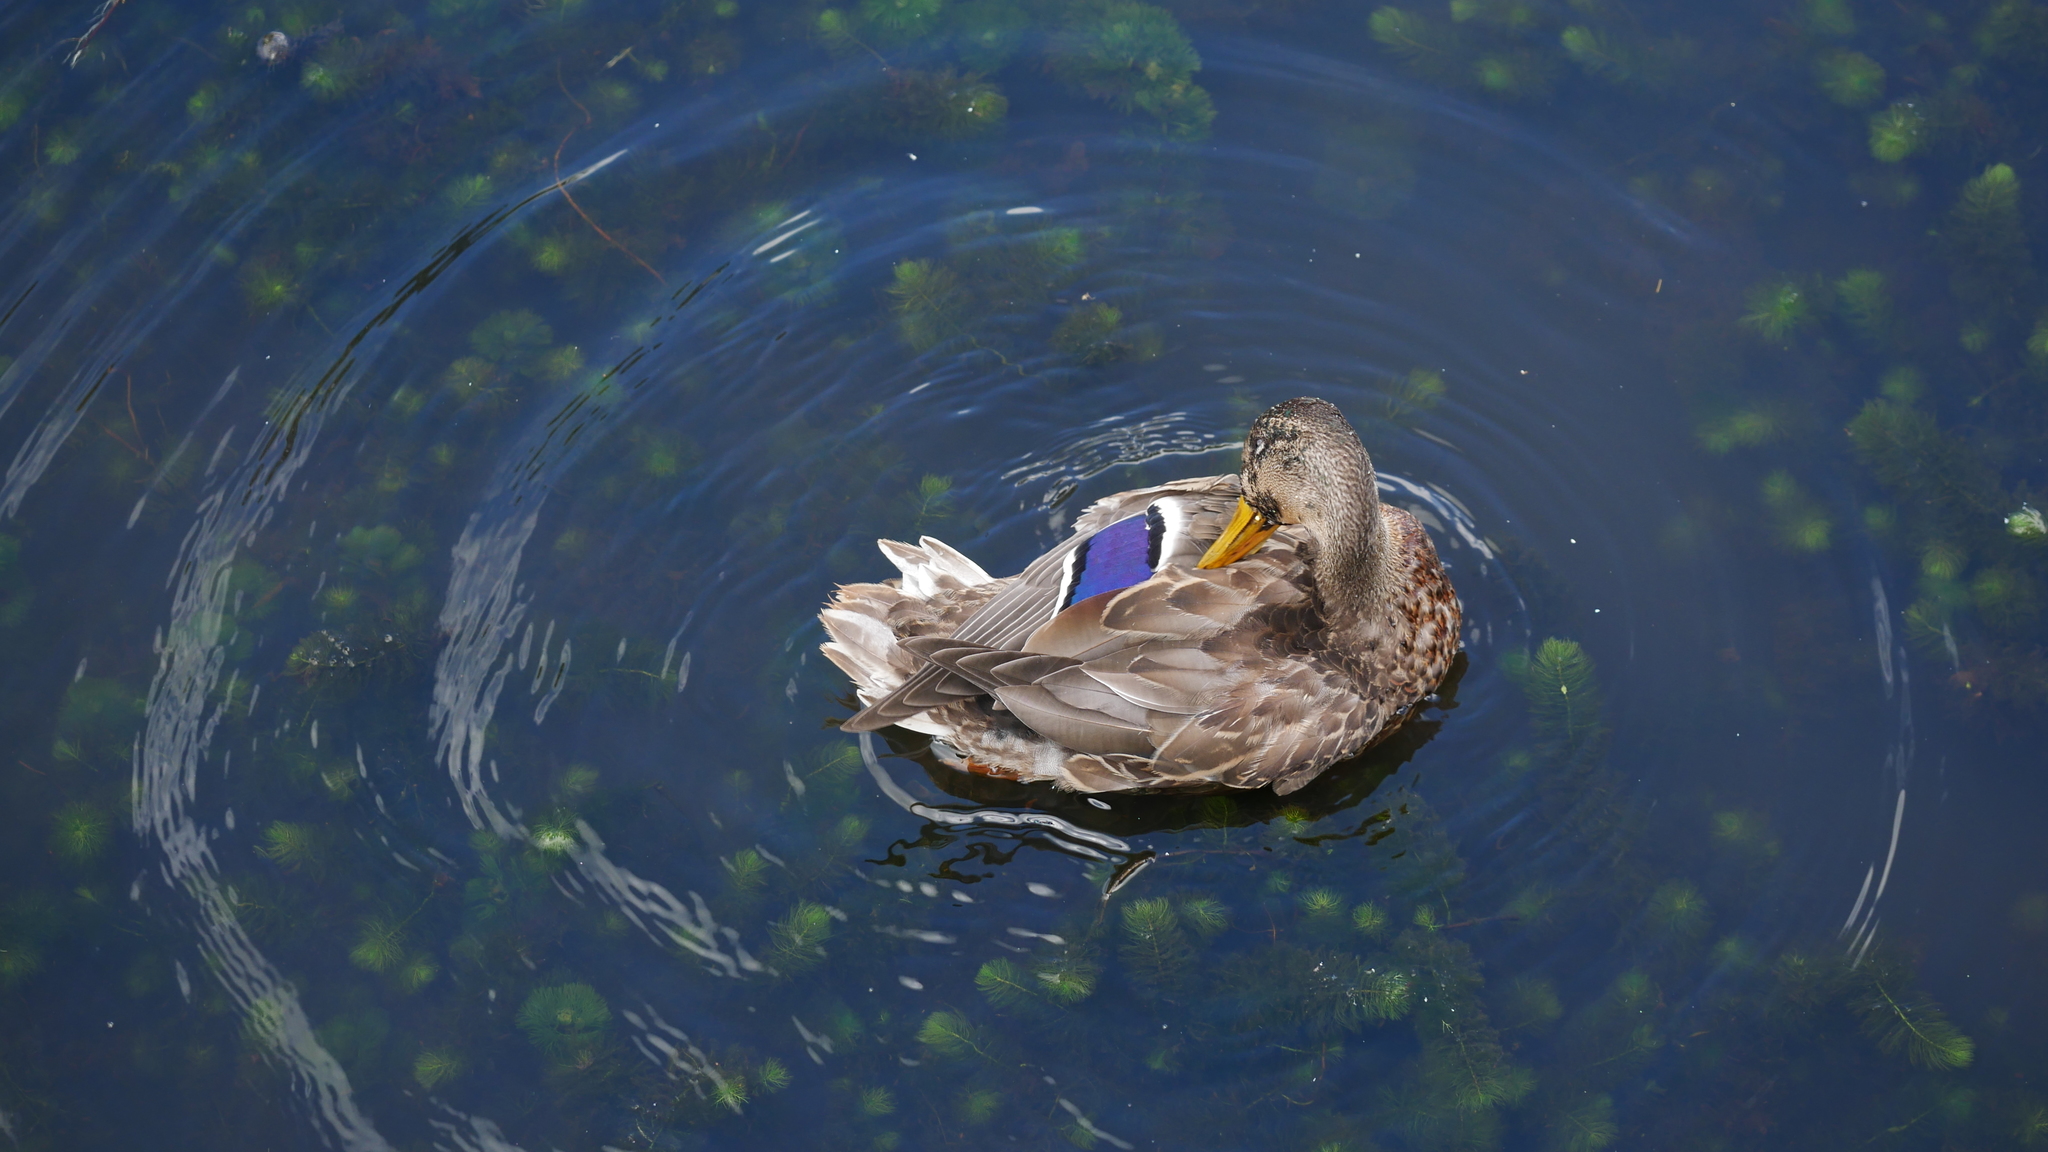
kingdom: Animalia
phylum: Chordata
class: Aves
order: Anseriformes
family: Anatidae
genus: Anas
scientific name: Anas platyrhynchos
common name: Mallard
